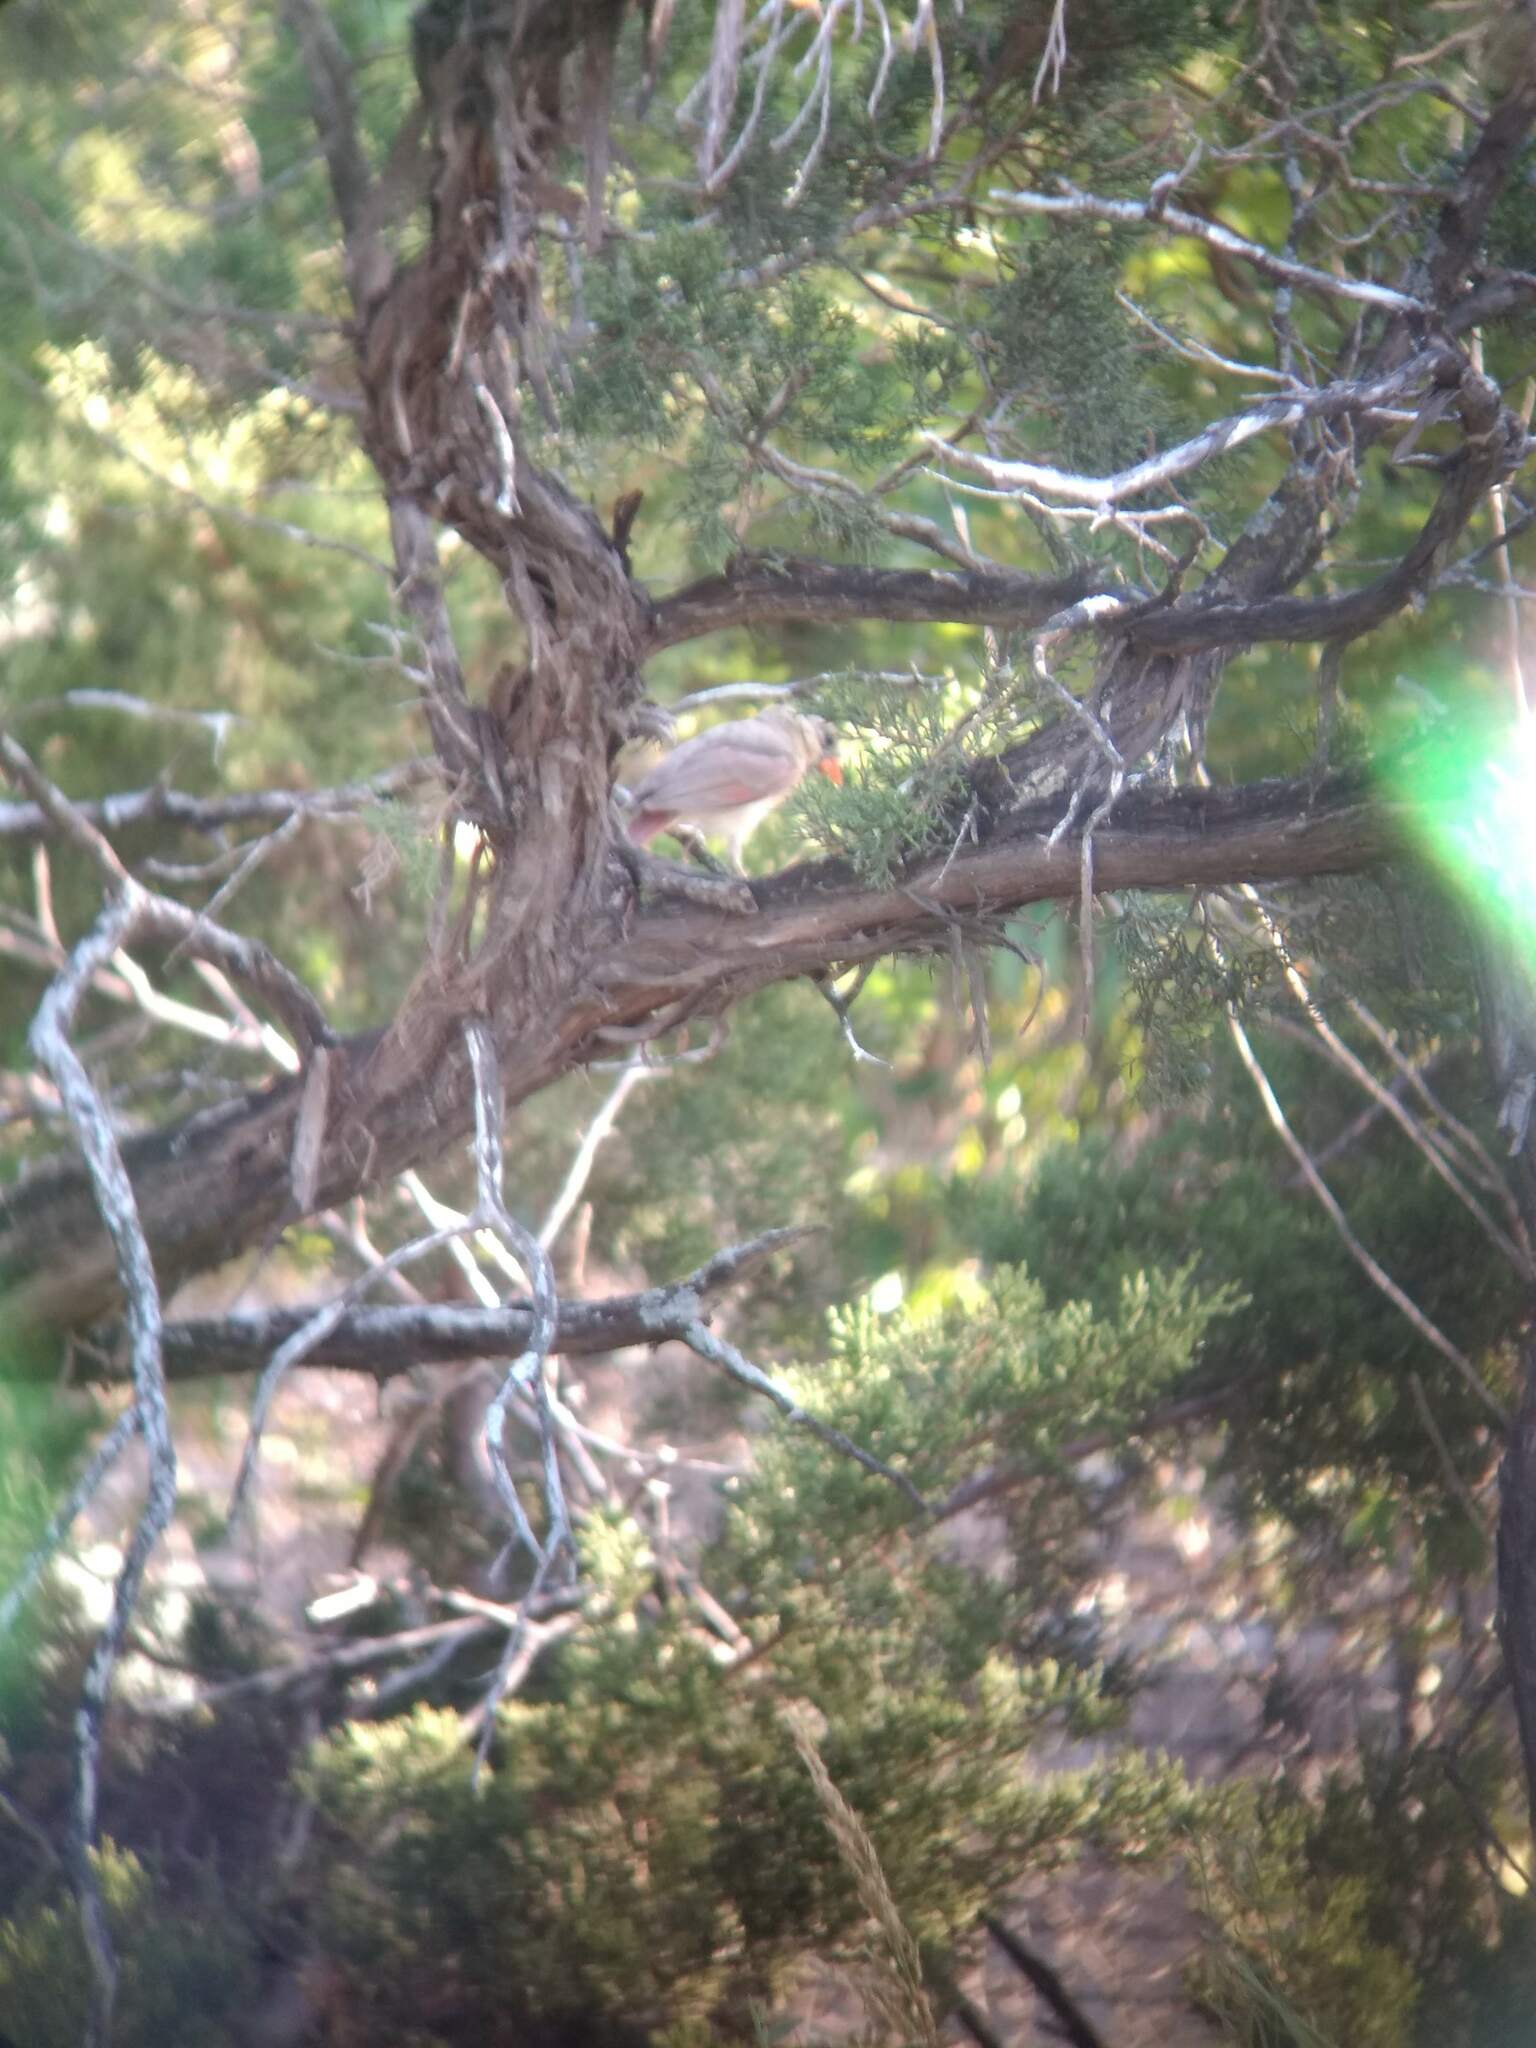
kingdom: Animalia
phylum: Chordata
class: Aves
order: Passeriformes
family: Cardinalidae
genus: Cardinalis
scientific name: Cardinalis cardinalis
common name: Northern cardinal
